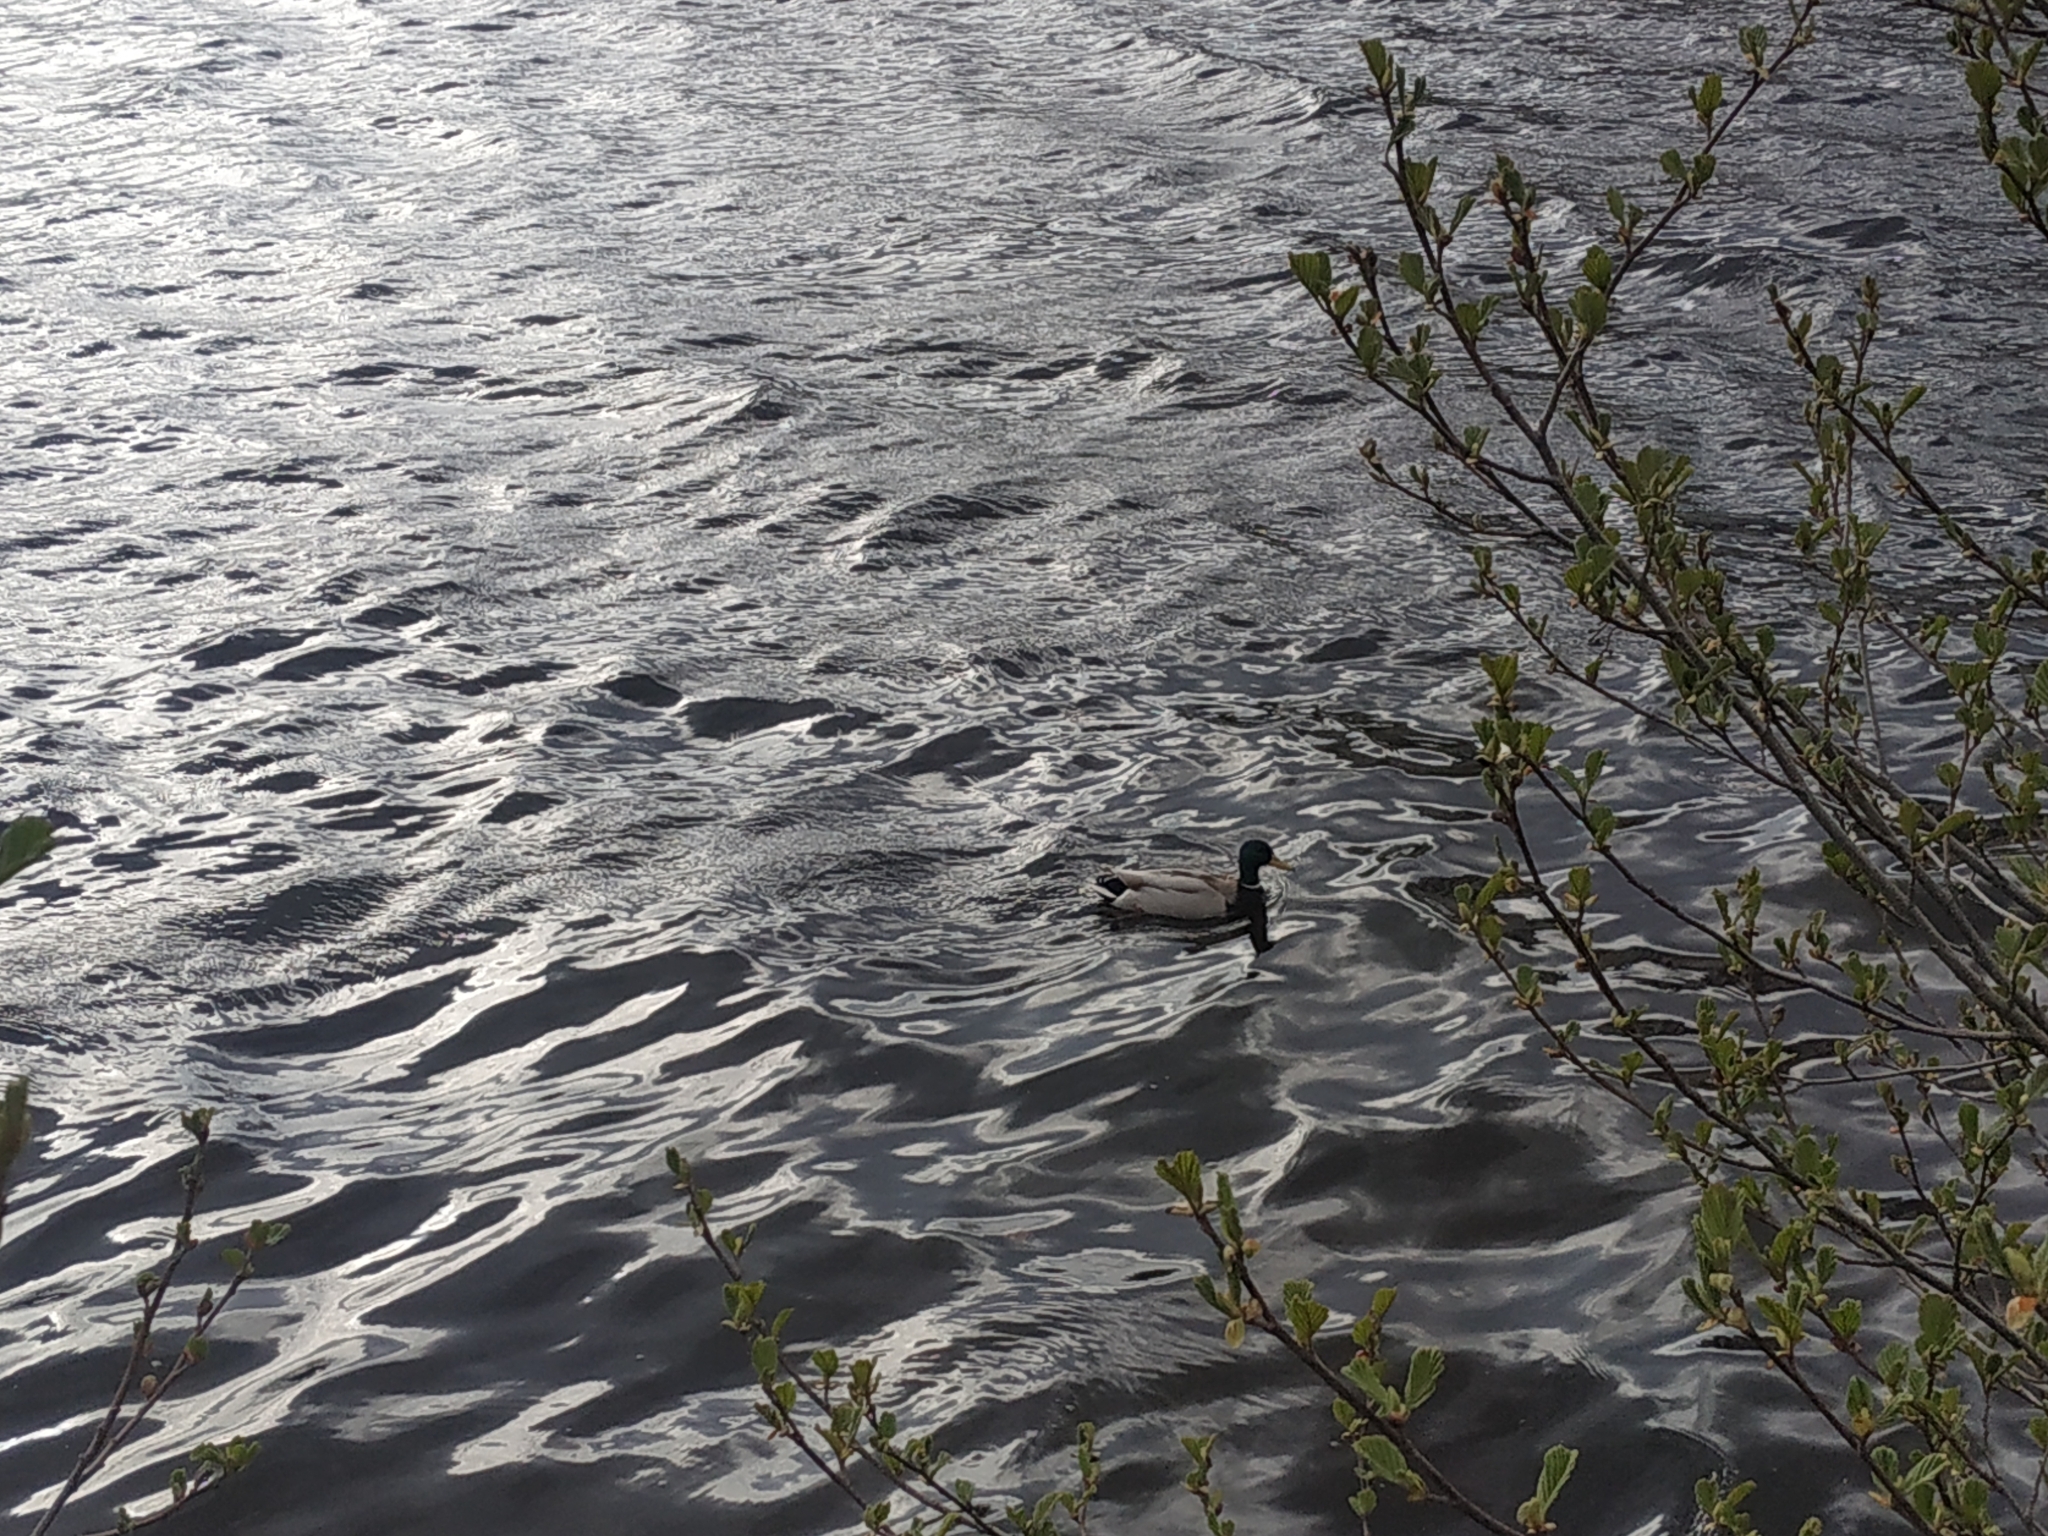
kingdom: Animalia
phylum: Chordata
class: Aves
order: Anseriformes
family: Anatidae
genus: Anas
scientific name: Anas platyrhynchos
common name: Mallard
